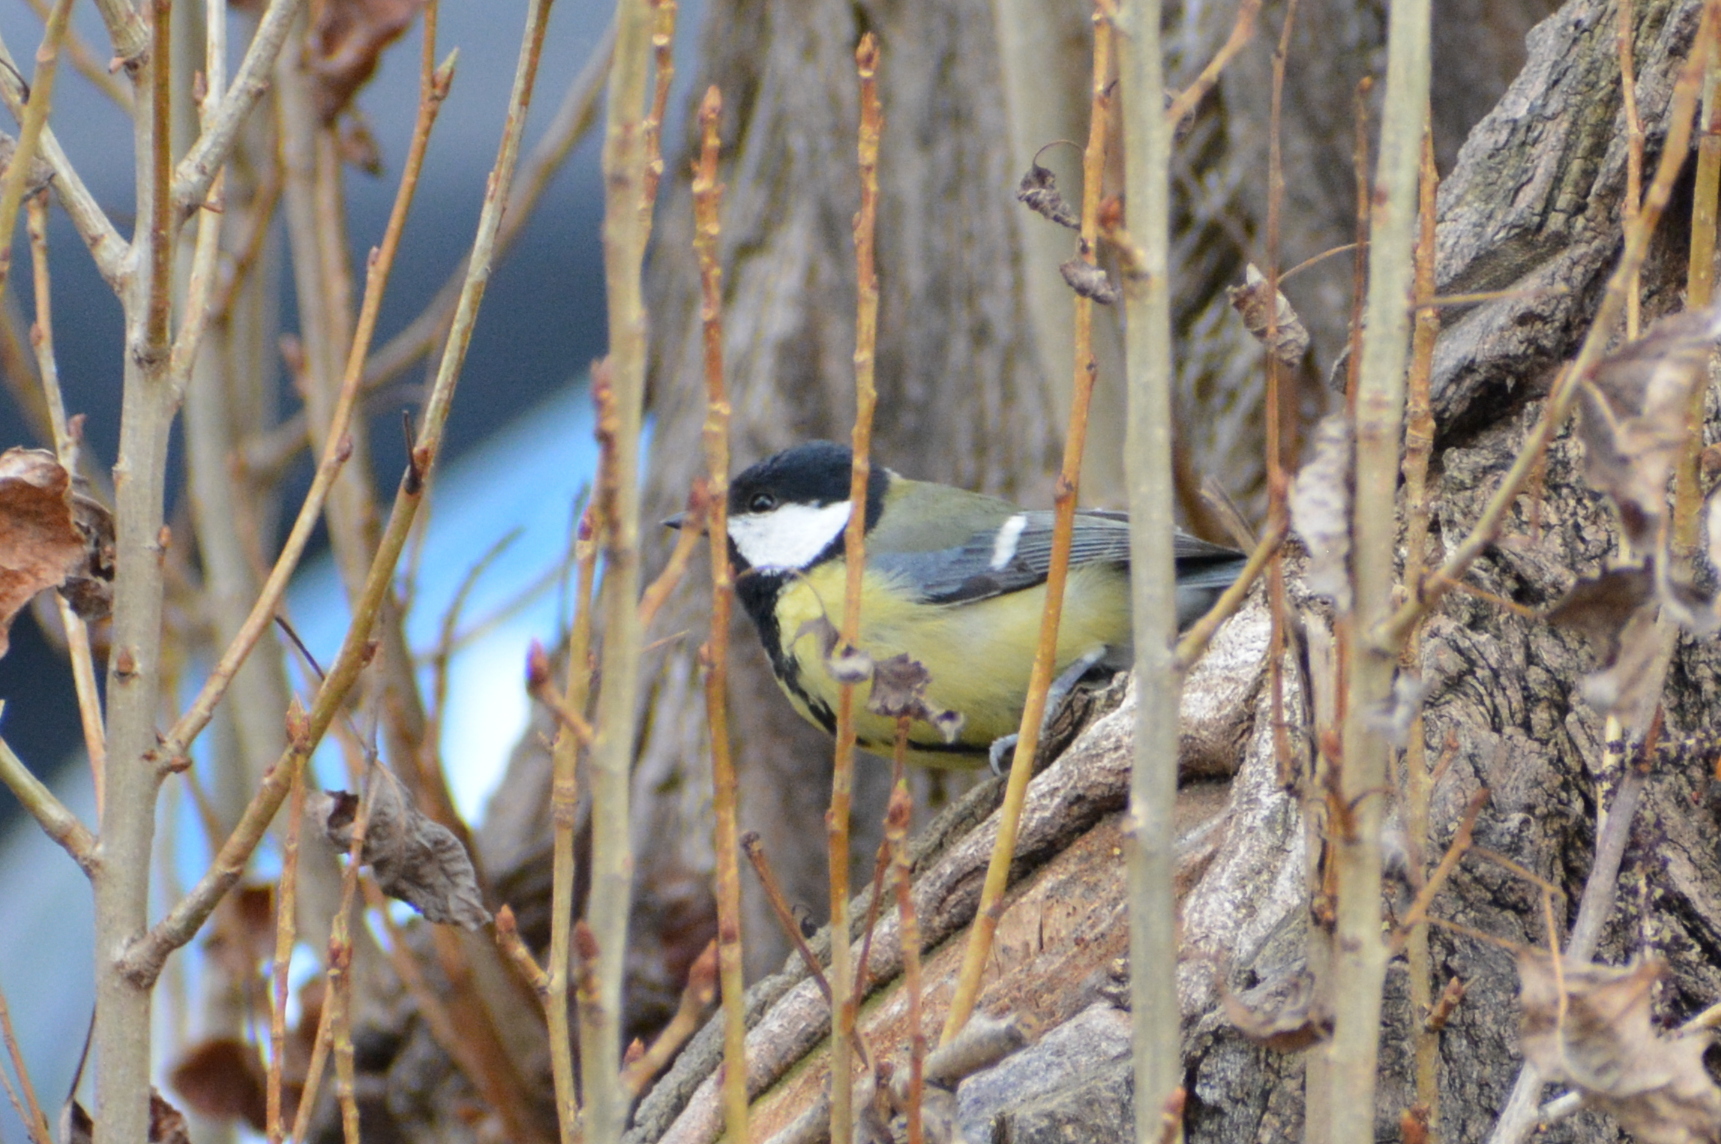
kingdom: Animalia
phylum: Chordata
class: Aves
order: Passeriformes
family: Paridae
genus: Parus
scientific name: Parus major
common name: Great tit
